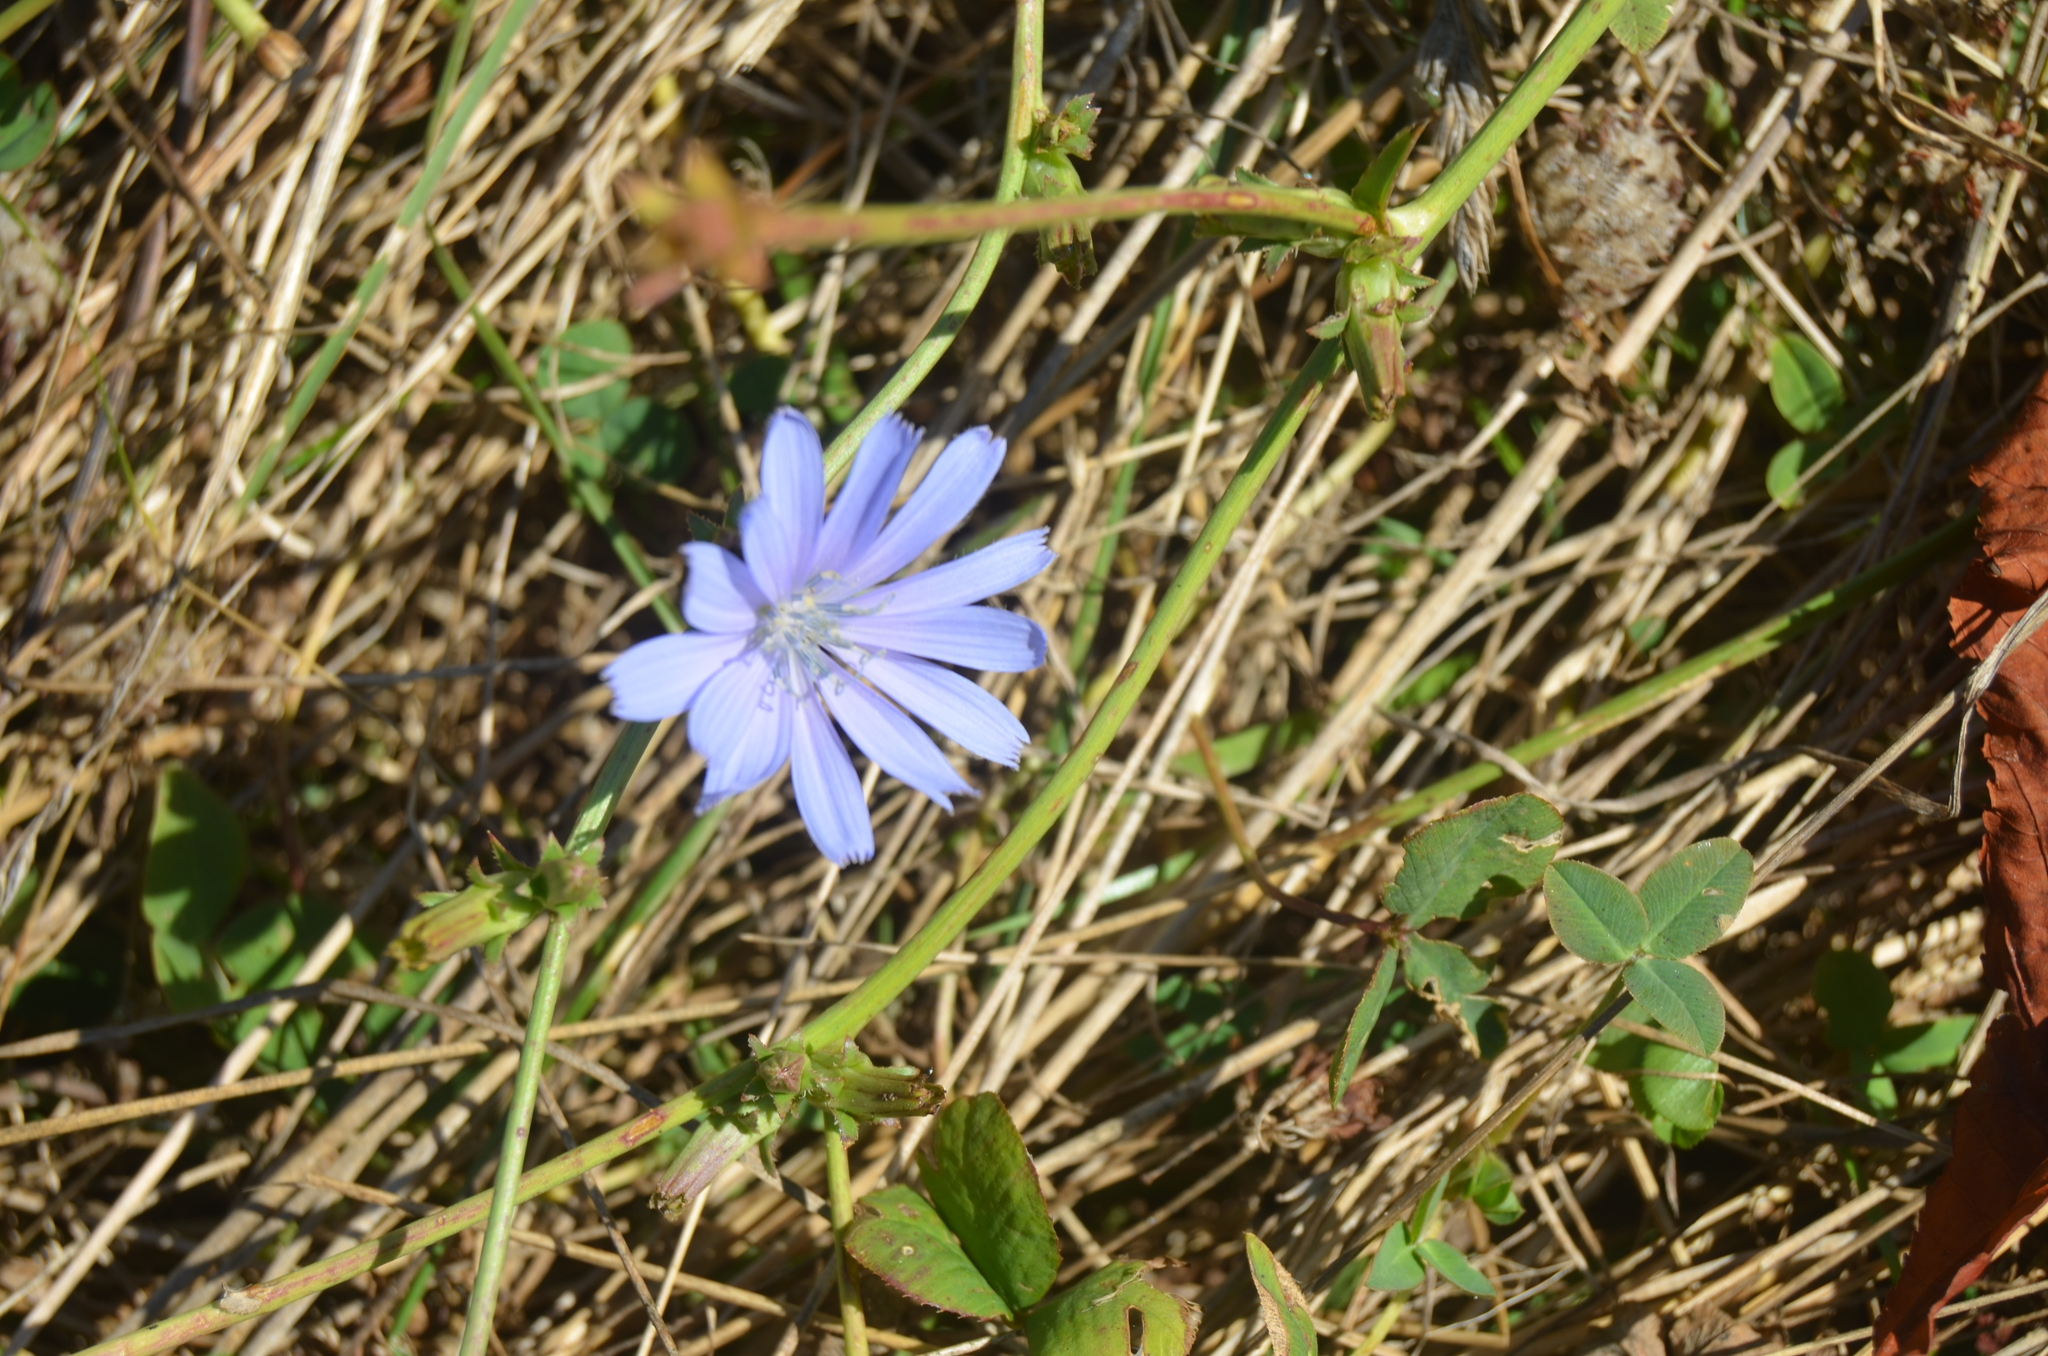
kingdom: Plantae
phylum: Tracheophyta
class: Magnoliopsida
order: Asterales
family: Asteraceae
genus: Cichorium
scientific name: Cichorium intybus
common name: Chicory
